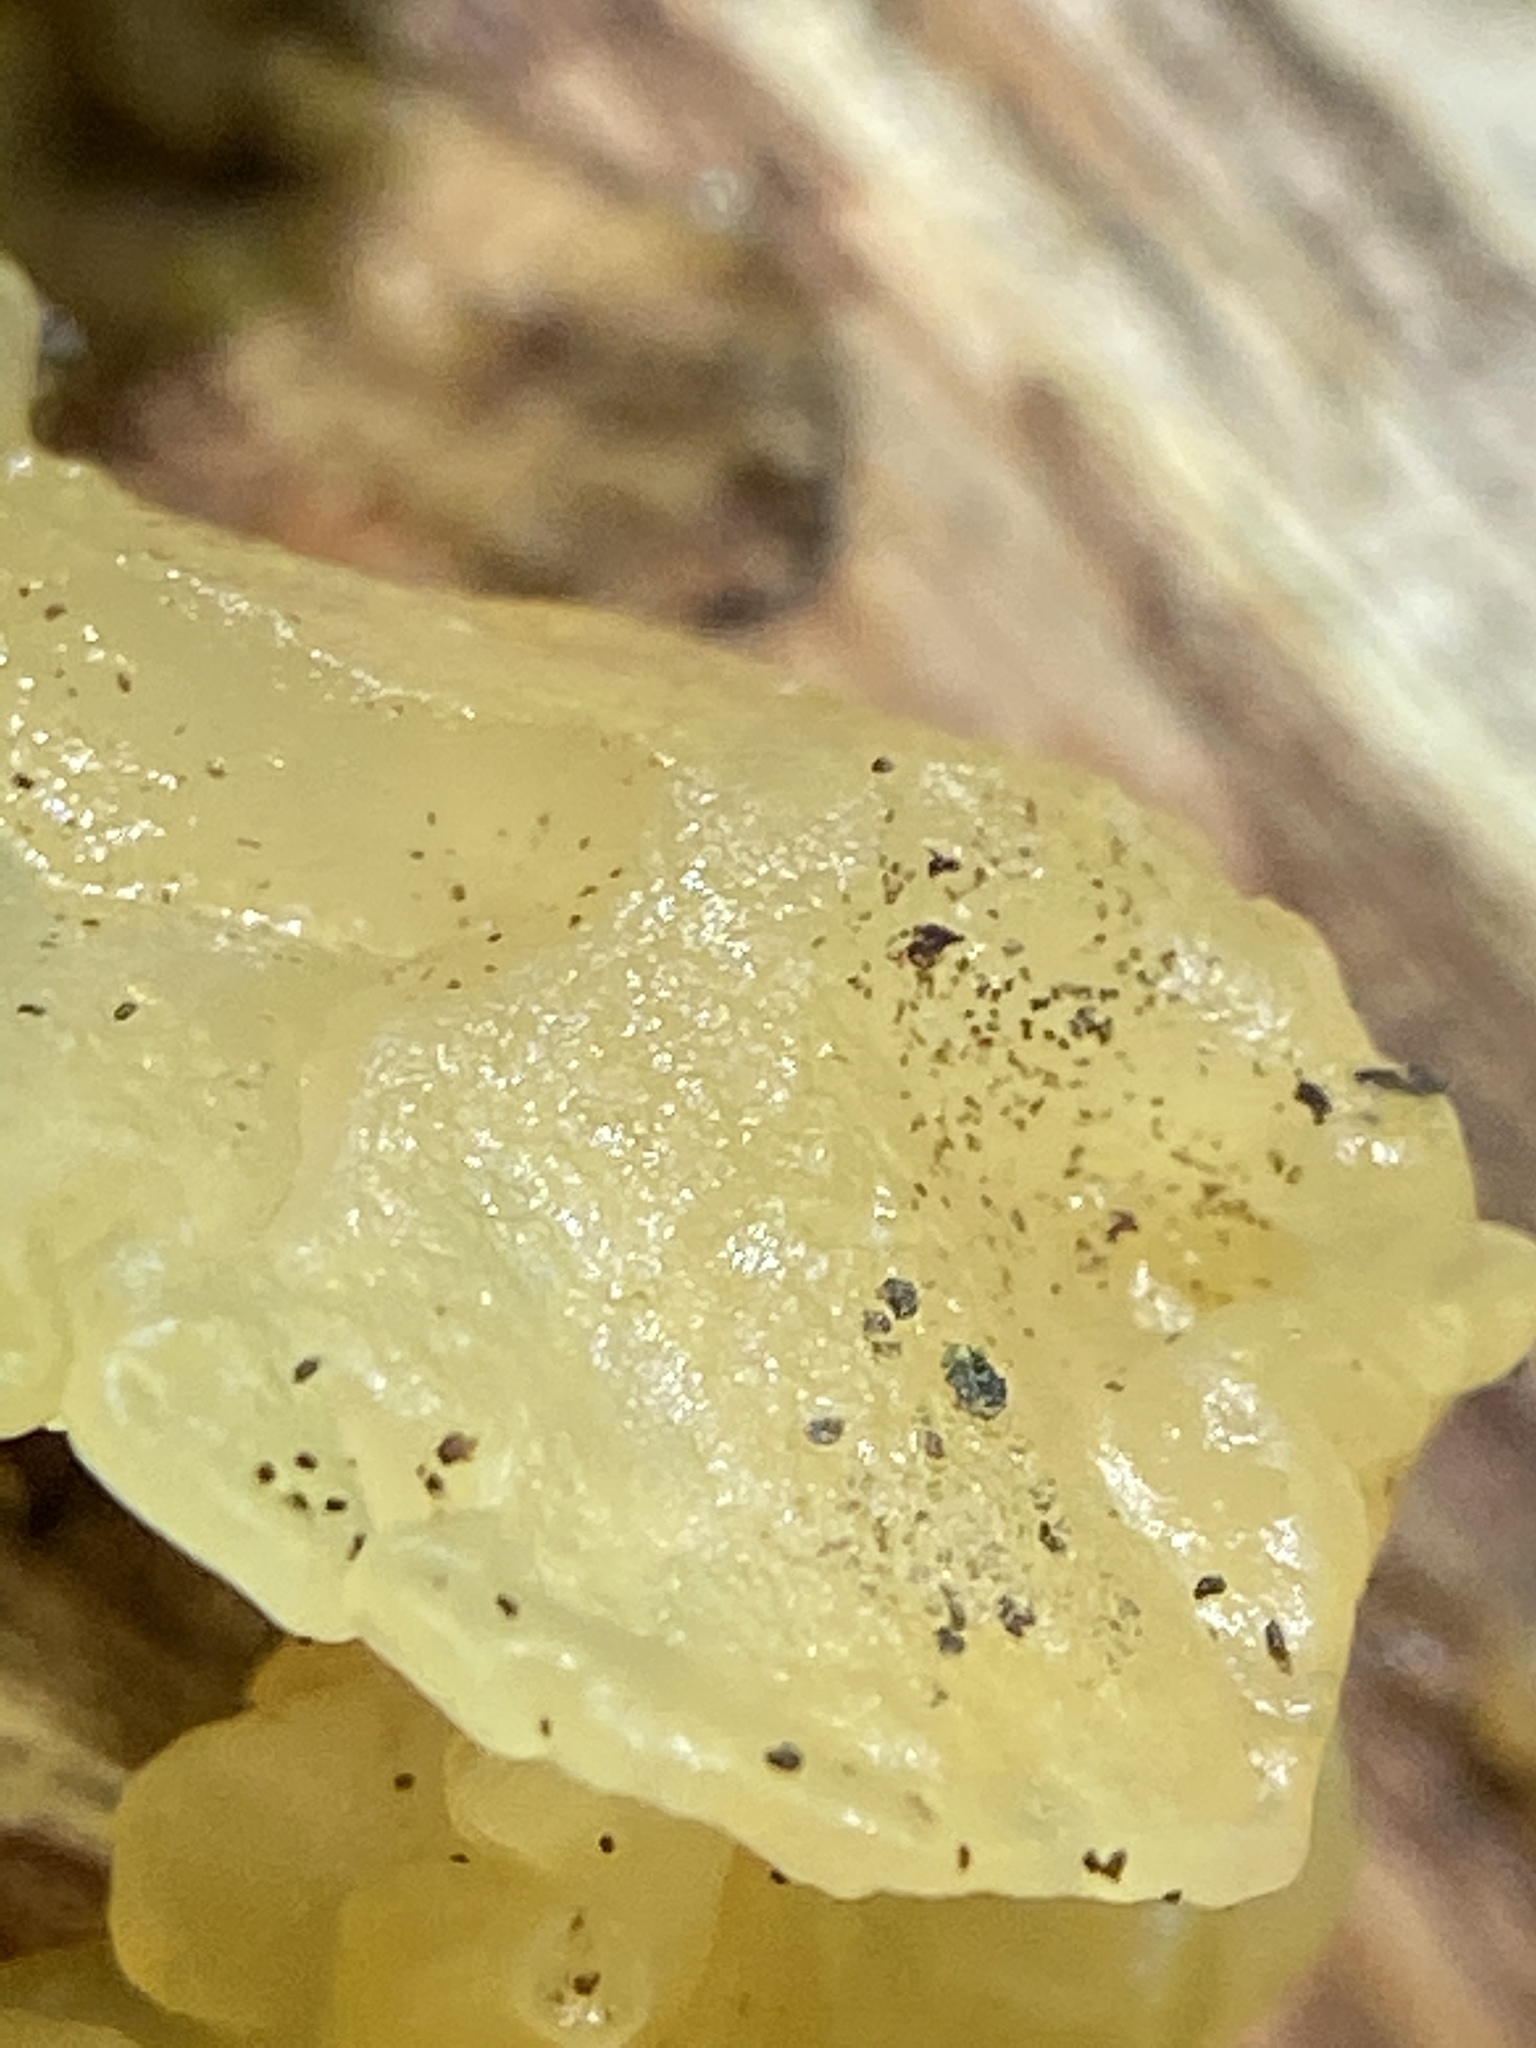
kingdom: Fungi
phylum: Basidiomycota
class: Tremellomycetes
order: Tremellales
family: Naemateliaceae
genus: Naematelia
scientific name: Naematelia aurantia
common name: Golden ear
